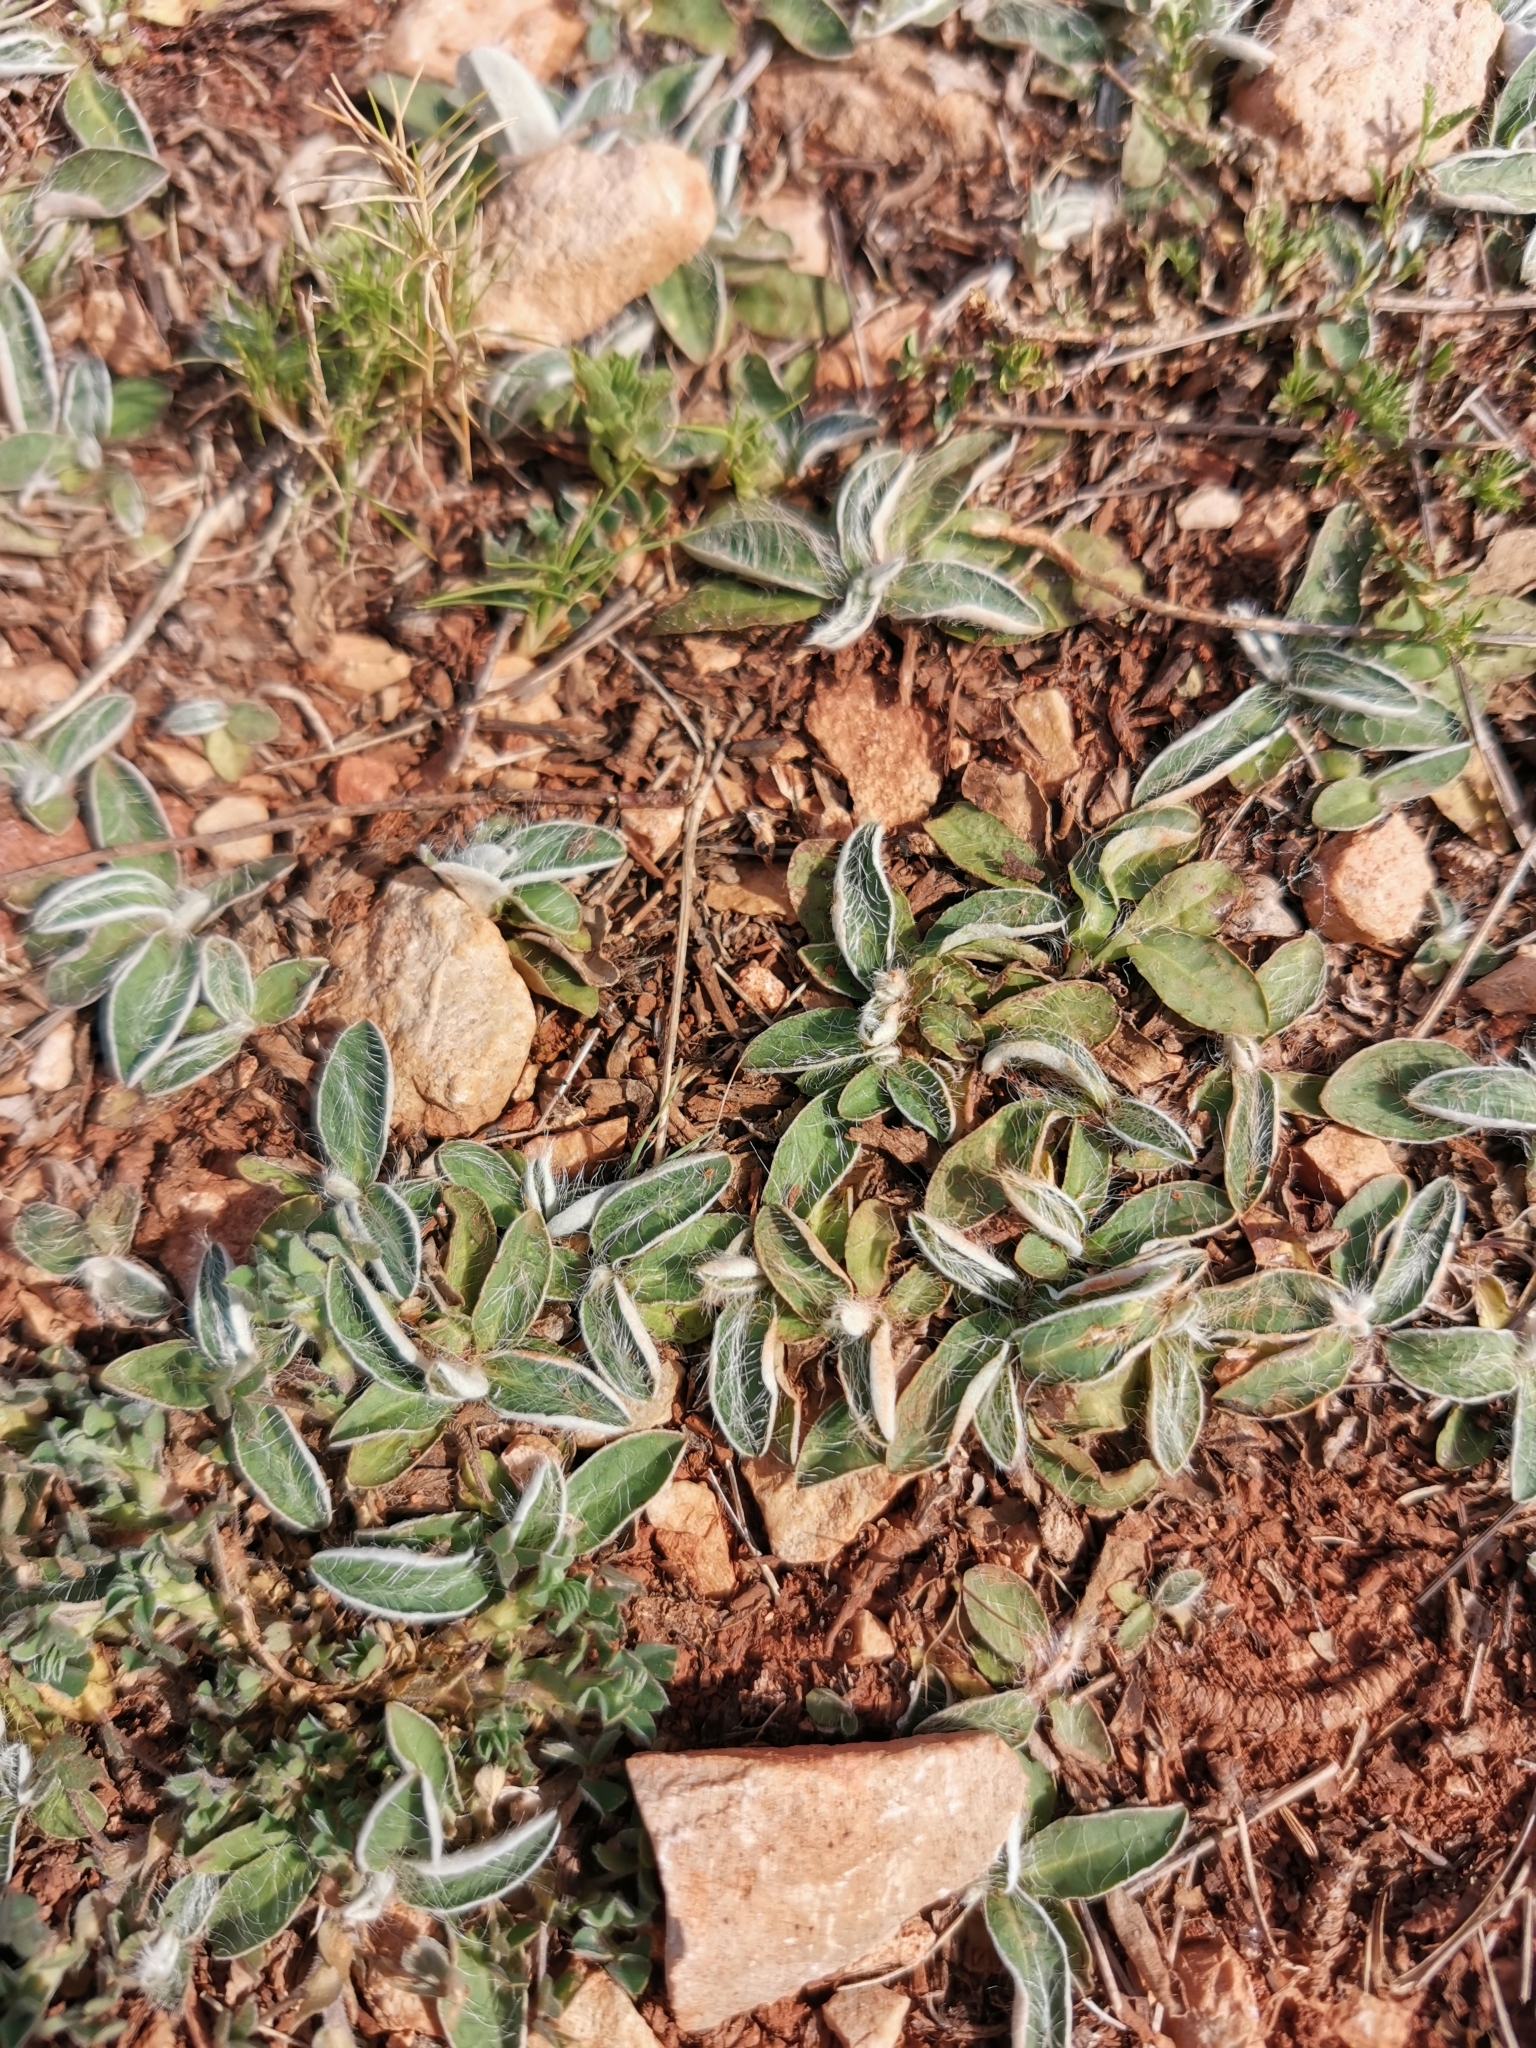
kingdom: Plantae
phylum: Tracheophyta
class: Magnoliopsida
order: Asterales
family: Asteraceae
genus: Pilosella
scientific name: Pilosella officinarum
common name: Mouse-ear hawkweed
